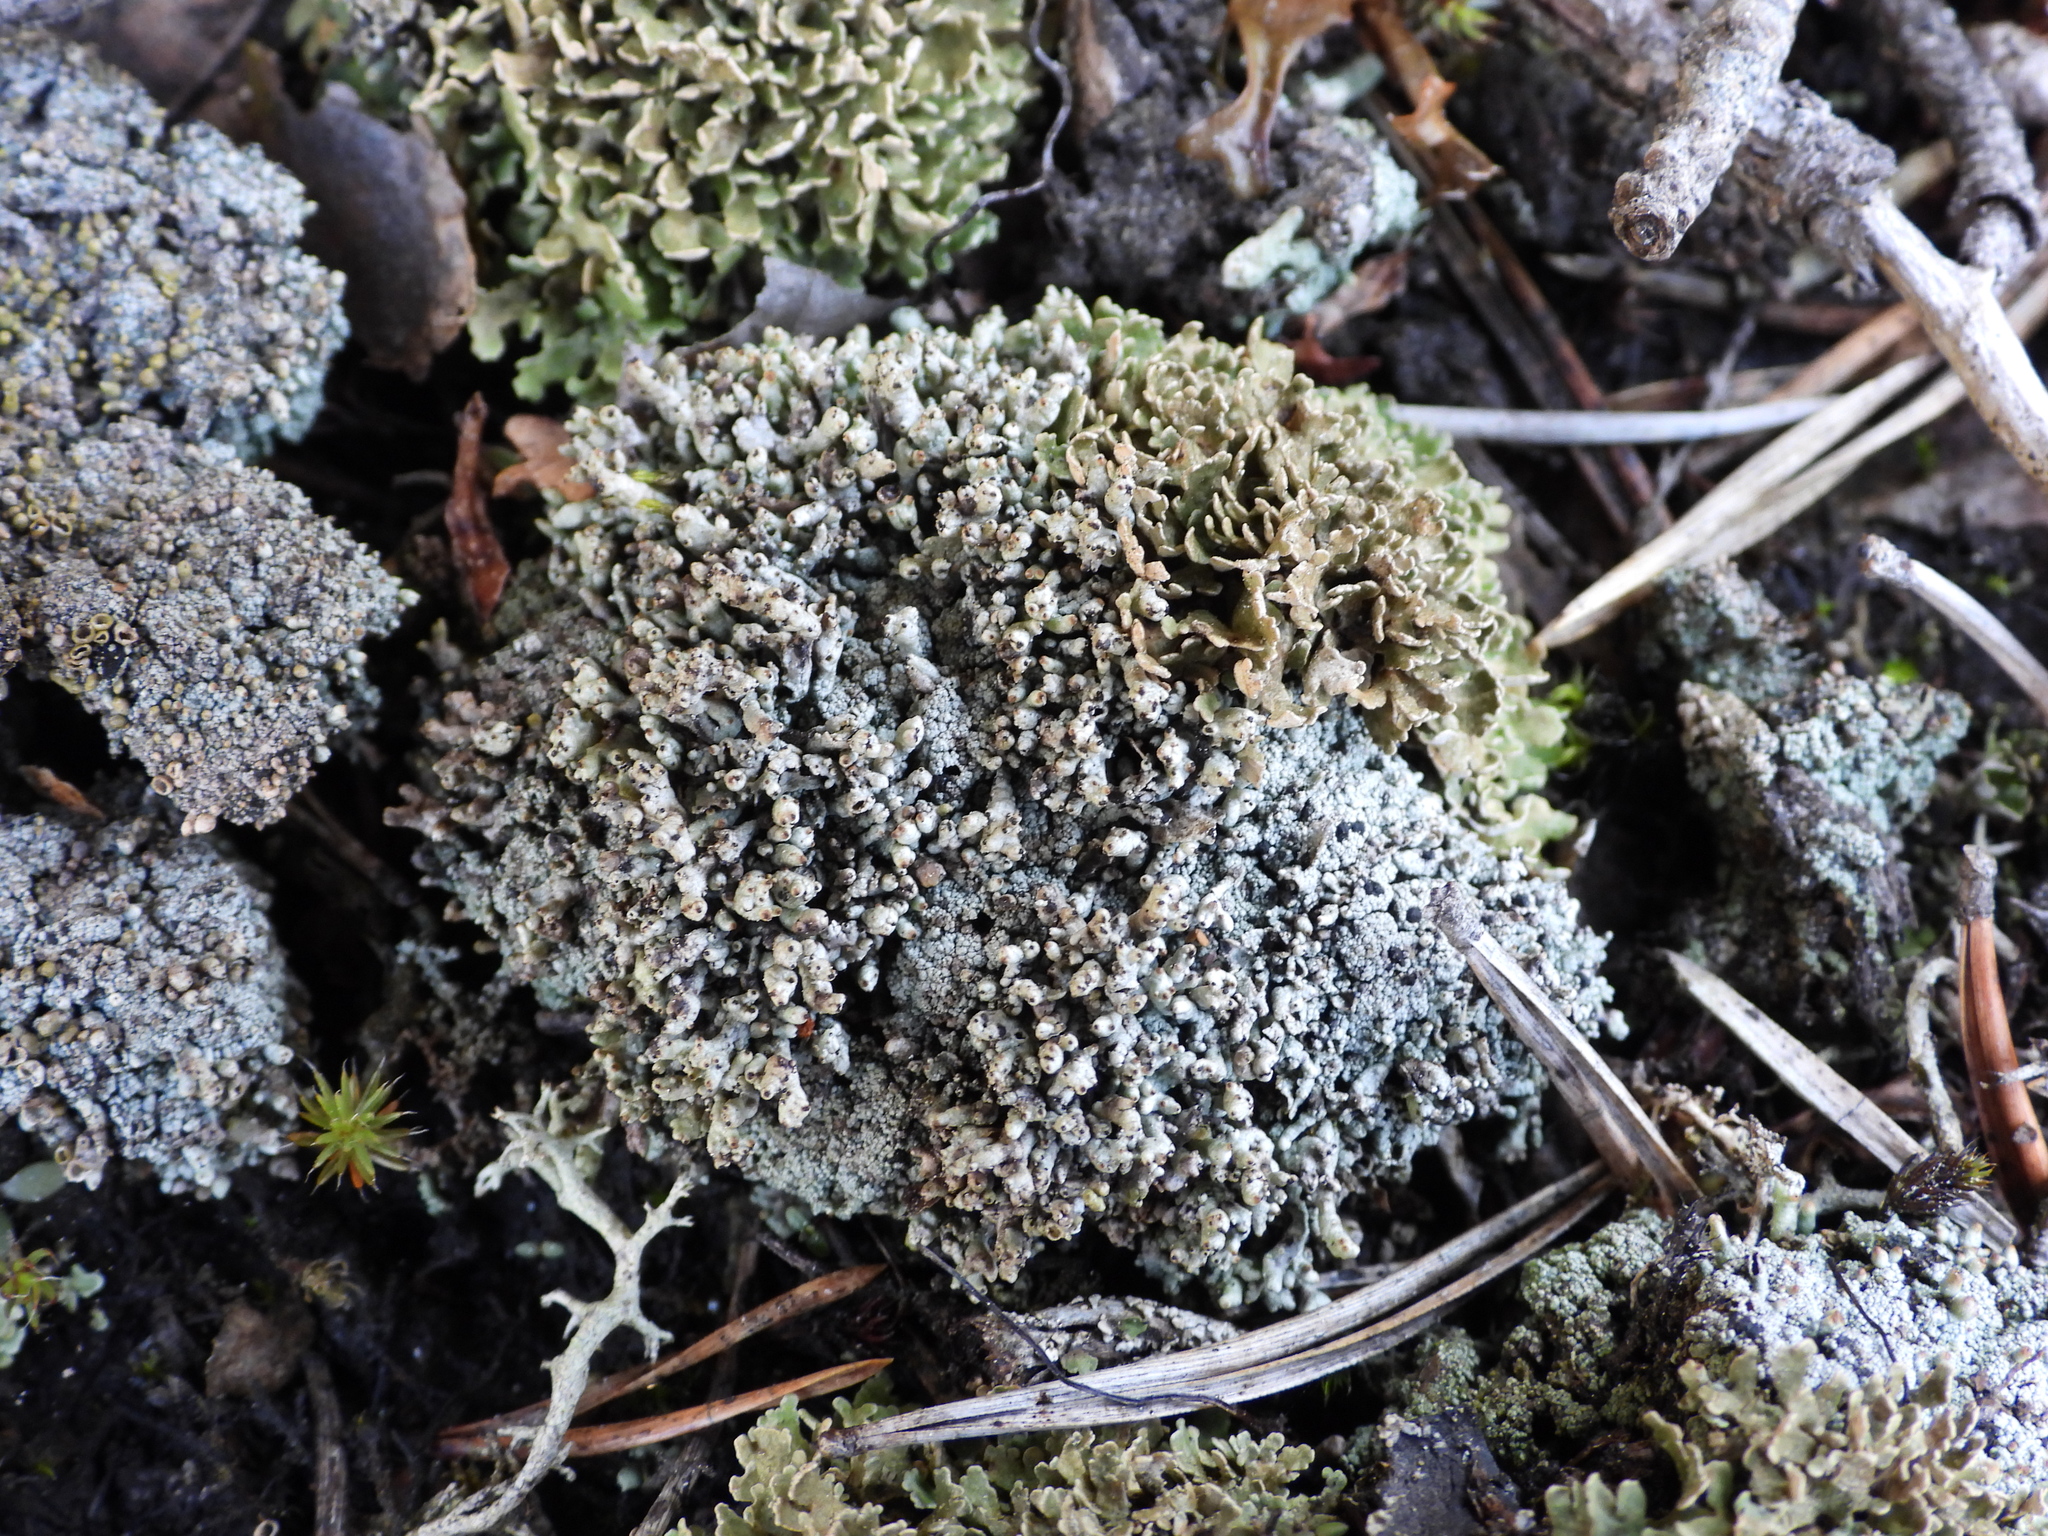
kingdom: Fungi
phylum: Ascomycota
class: Lecanoromycetes
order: Lecanorales
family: Cladoniaceae
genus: Pycnothelia
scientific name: Pycnothelia papillaria
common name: Nipple lichen
